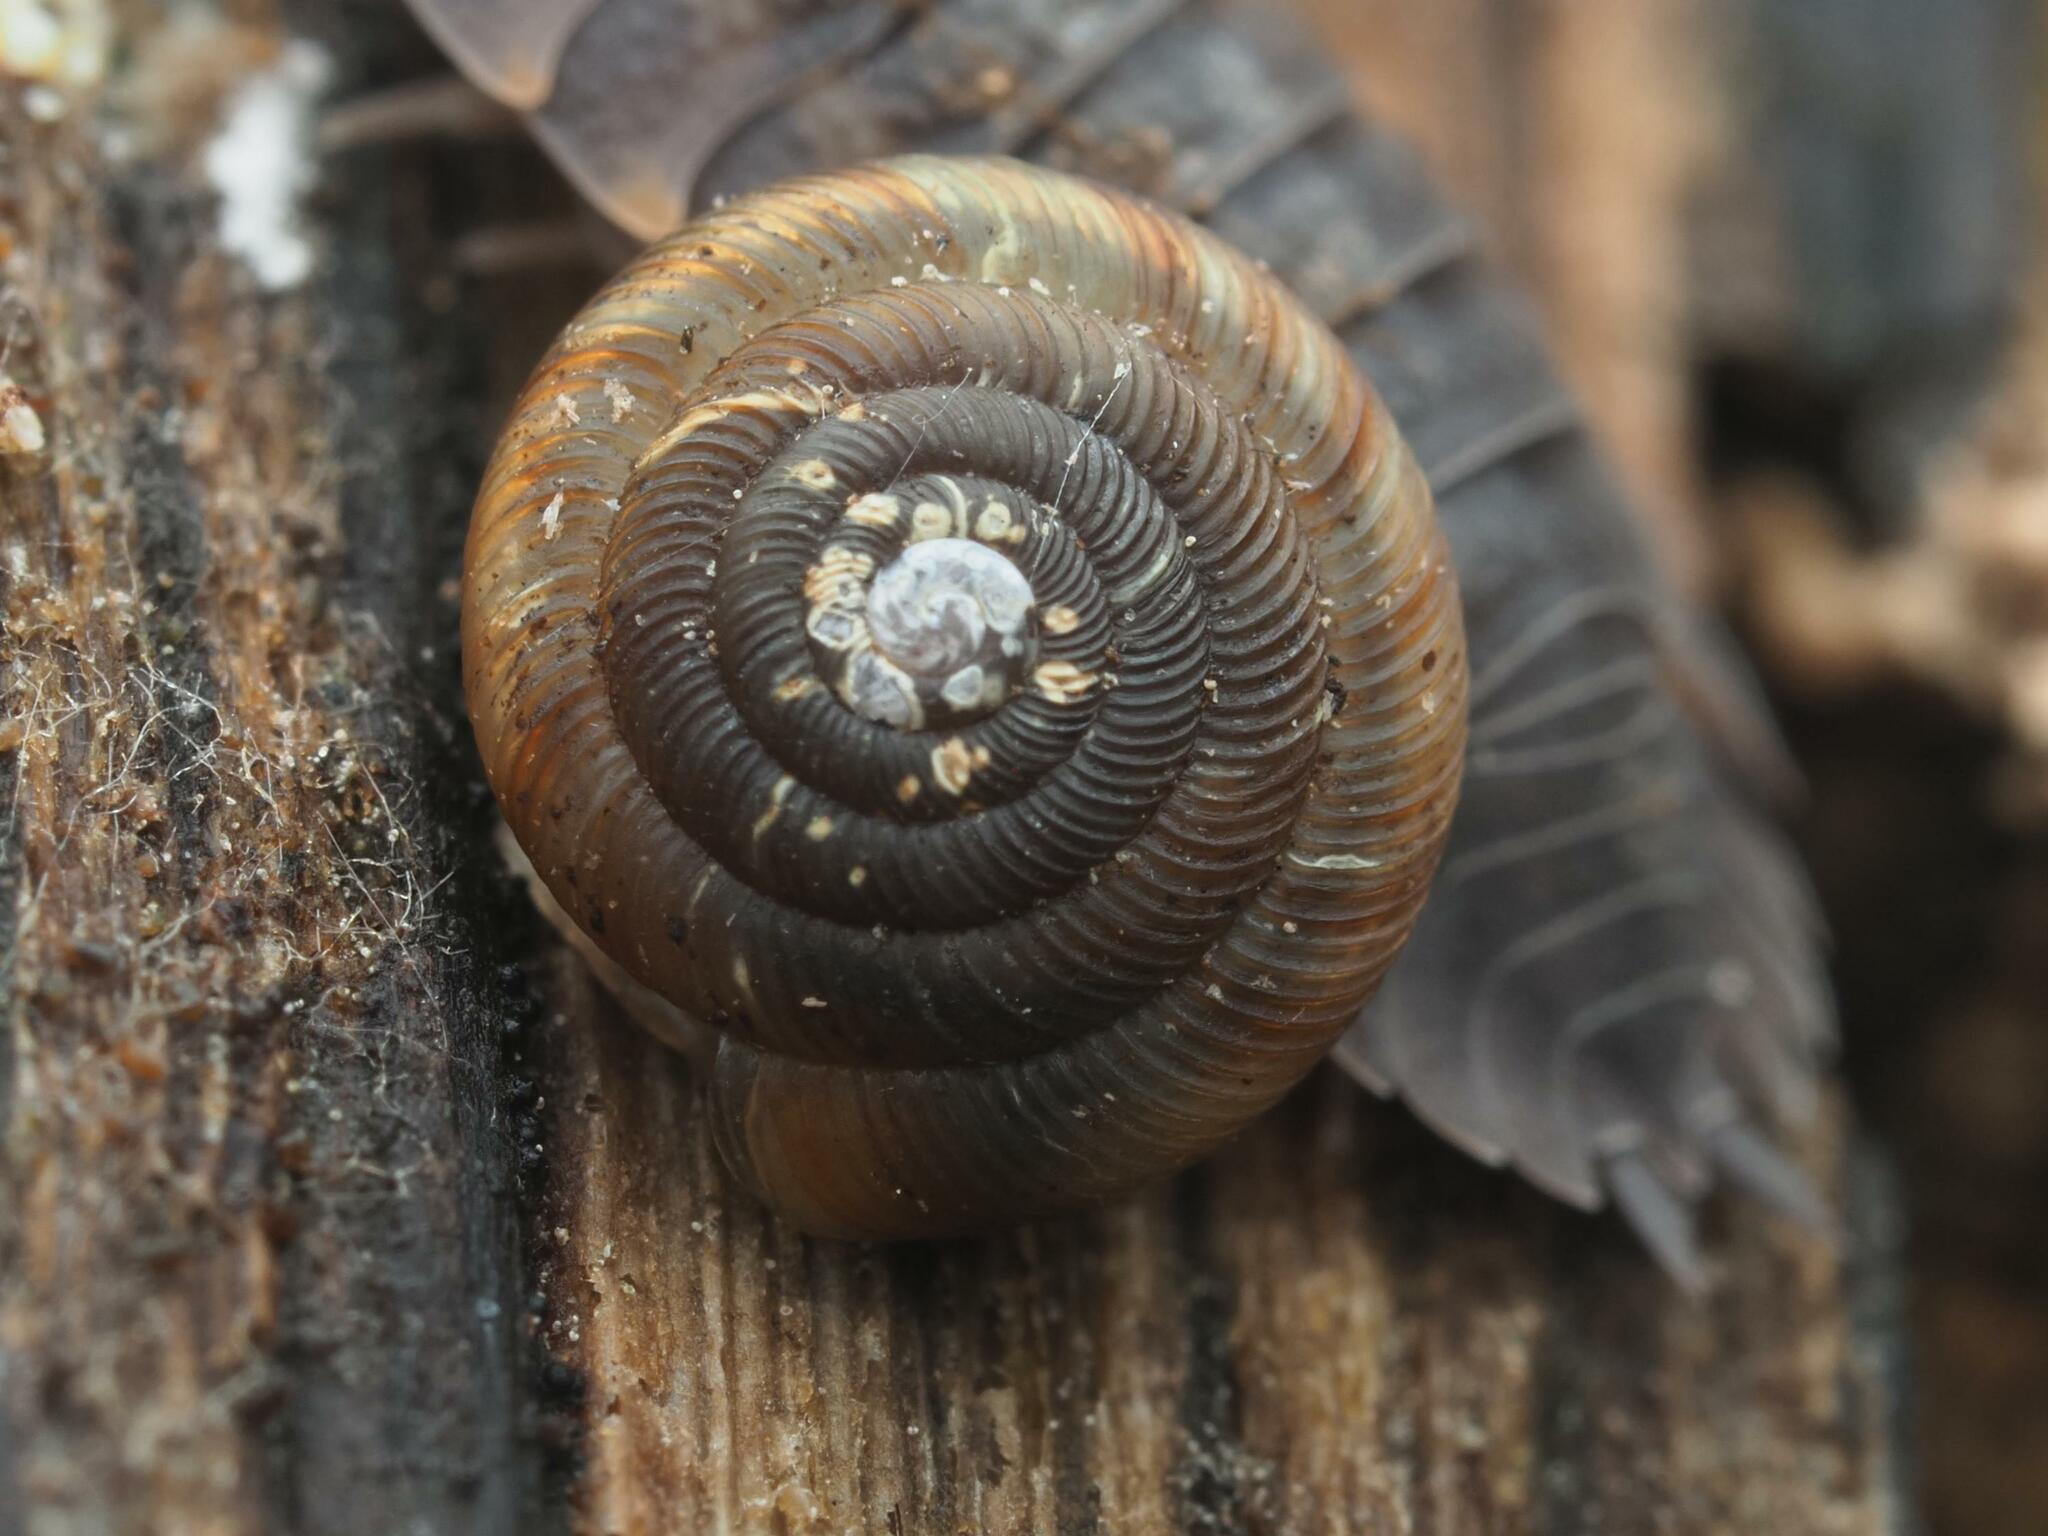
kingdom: Animalia
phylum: Mollusca
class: Gastropoda
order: Stylommatophora
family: Discidae
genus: Discus
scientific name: Discus rotundatus
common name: Rounded snail
